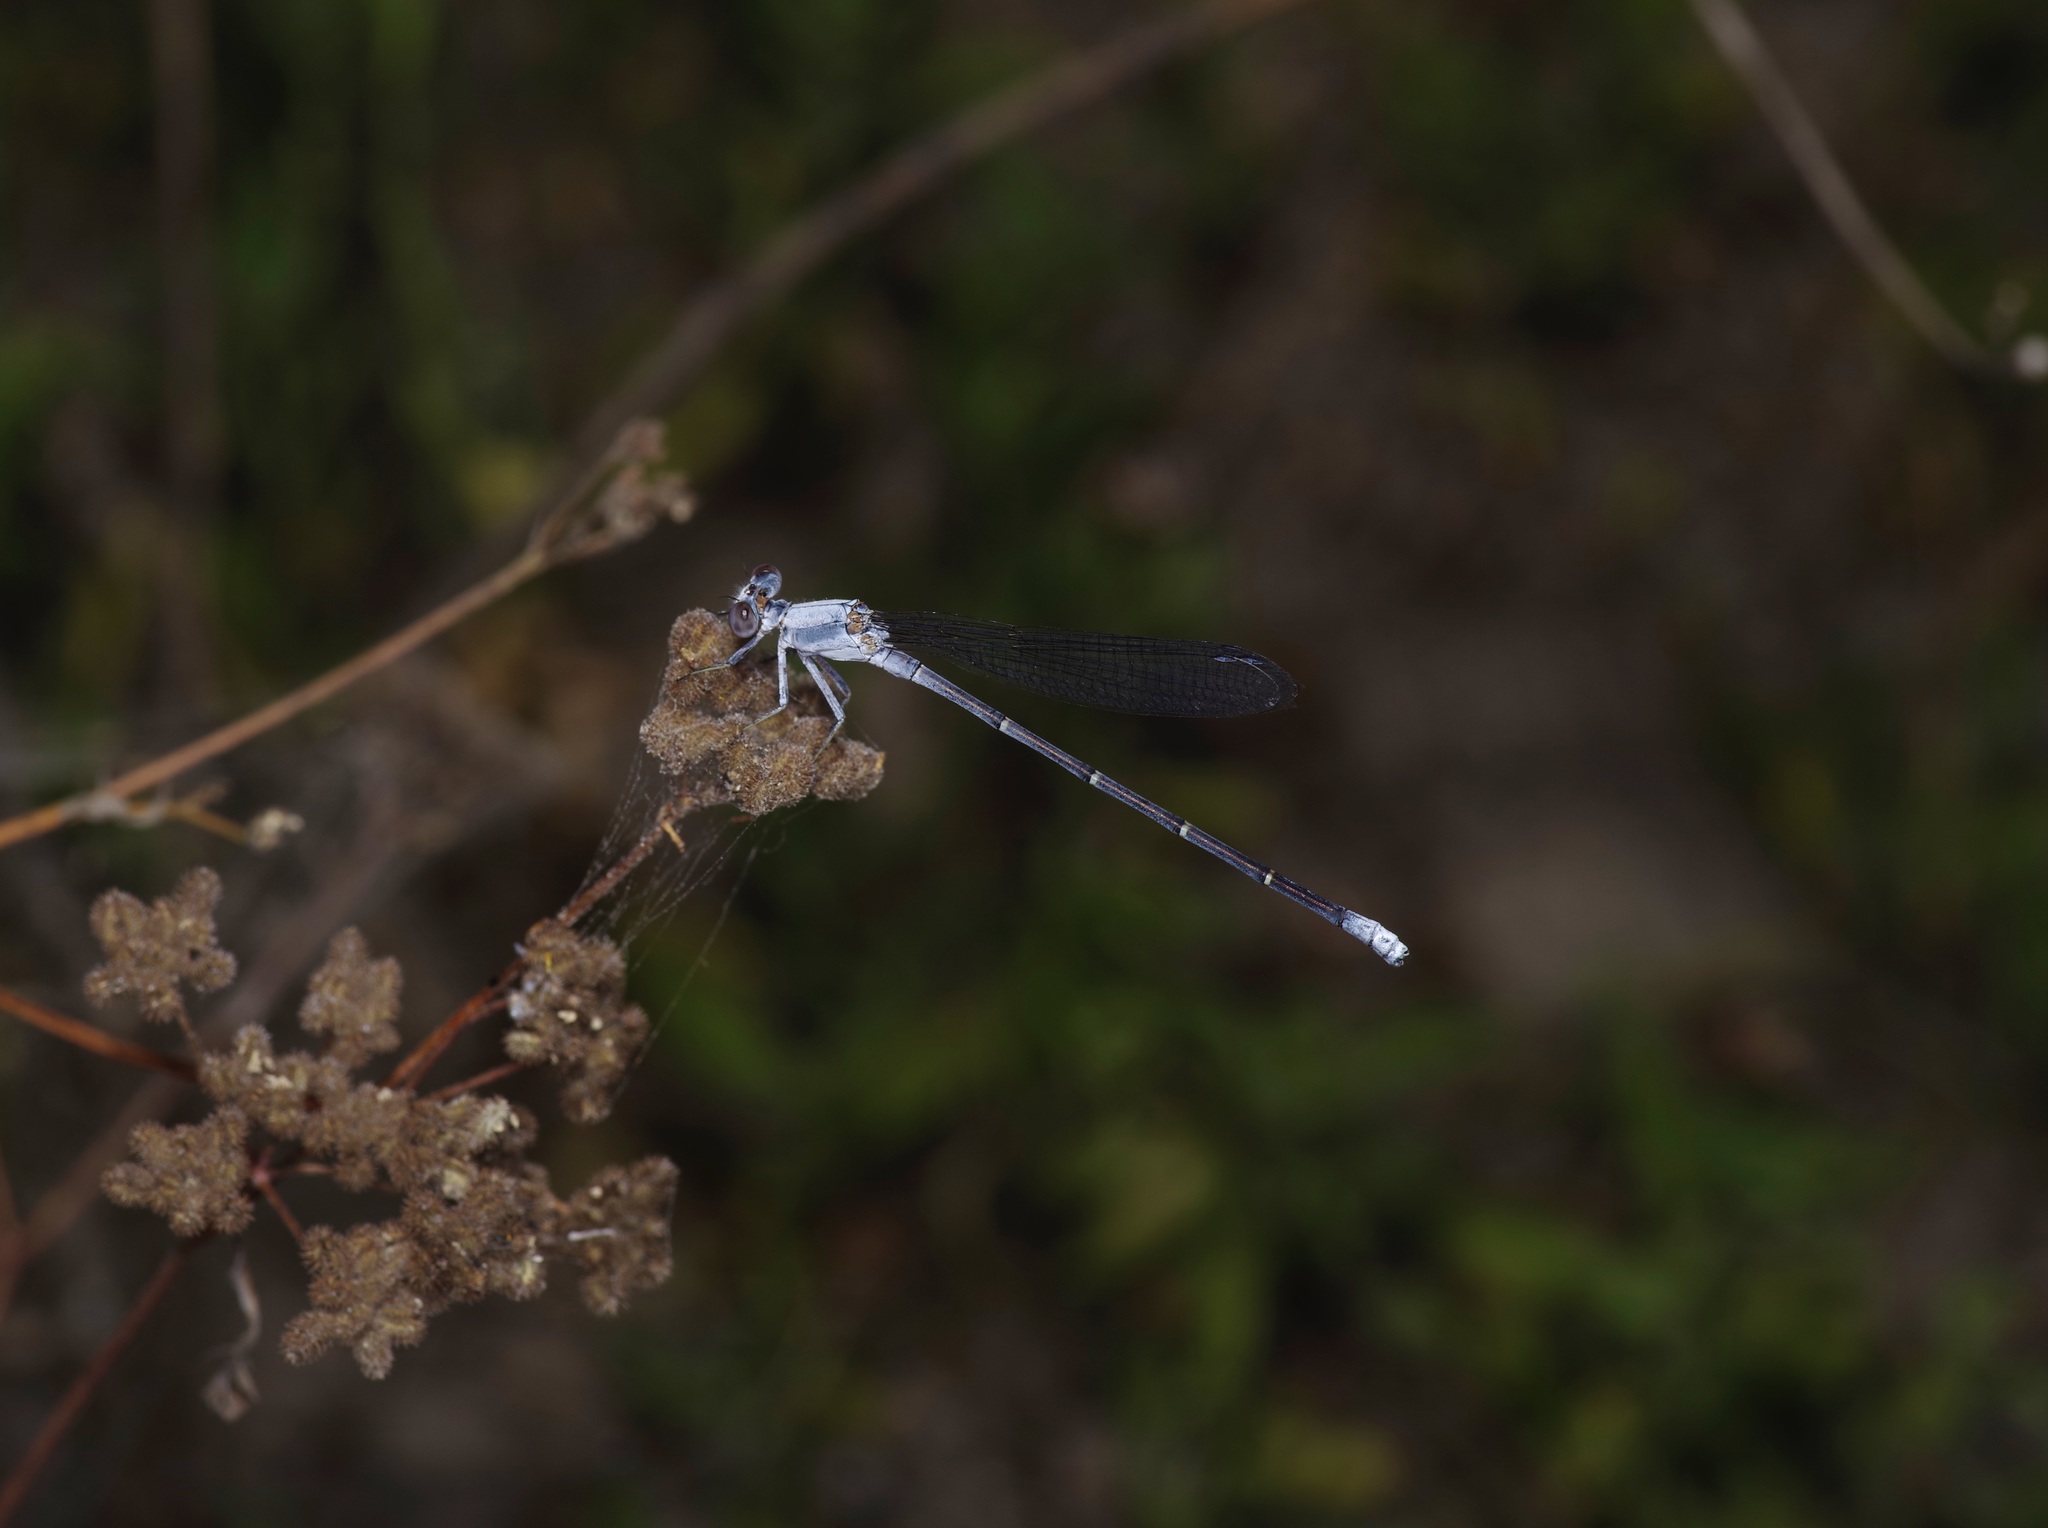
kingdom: Animalia
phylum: Arthropoda
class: Insecta
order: Odonata
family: Coenagrionidae
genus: Argia
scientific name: Argia moesta
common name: Powdered dancer
